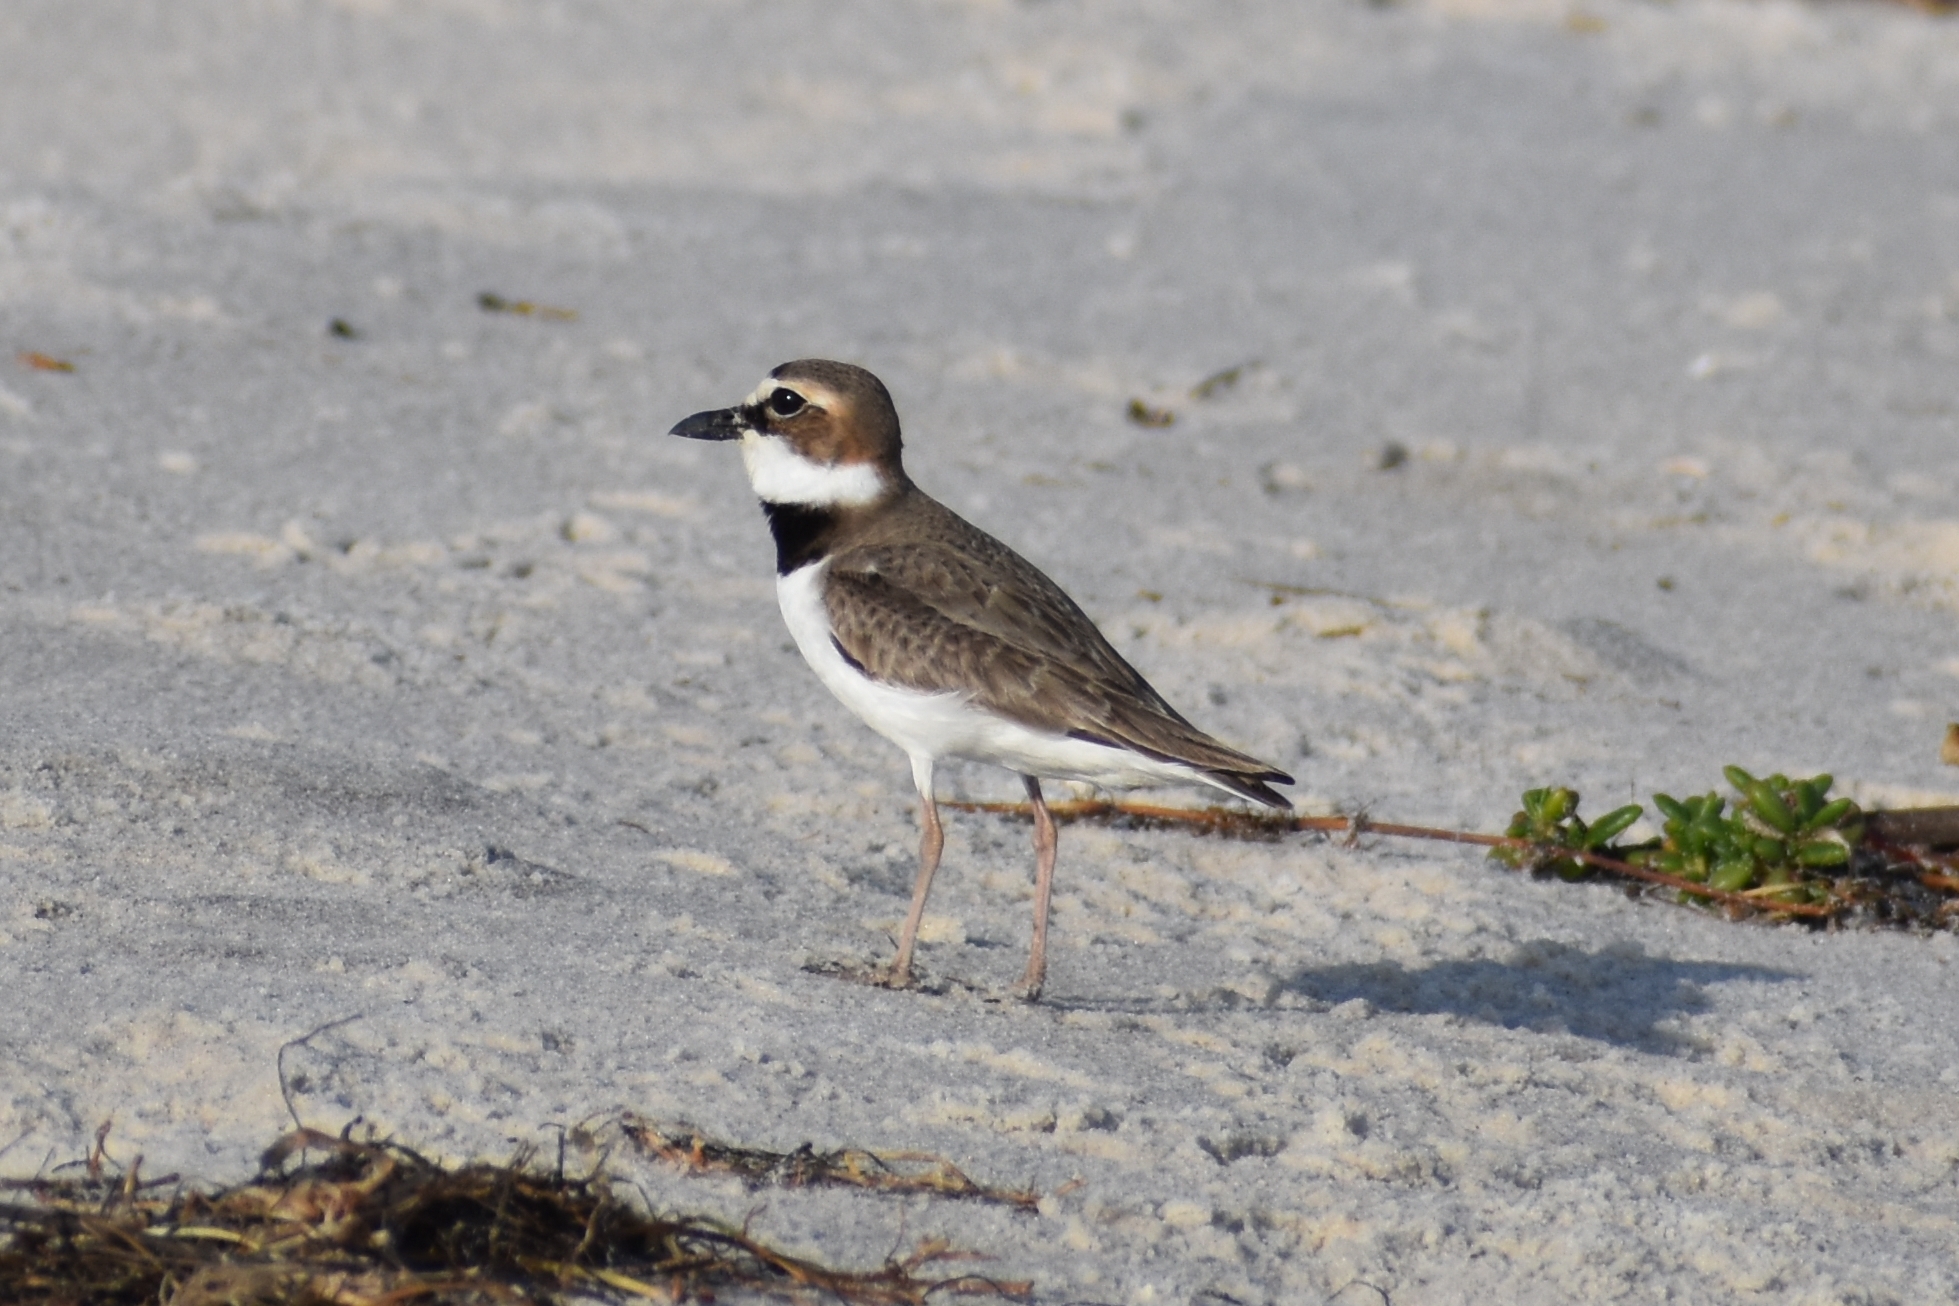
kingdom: Animalia
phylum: Chordata
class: Aves
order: Charadriiformes
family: Charadriidae
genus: Anarhynchus
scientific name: Anarhynchus
